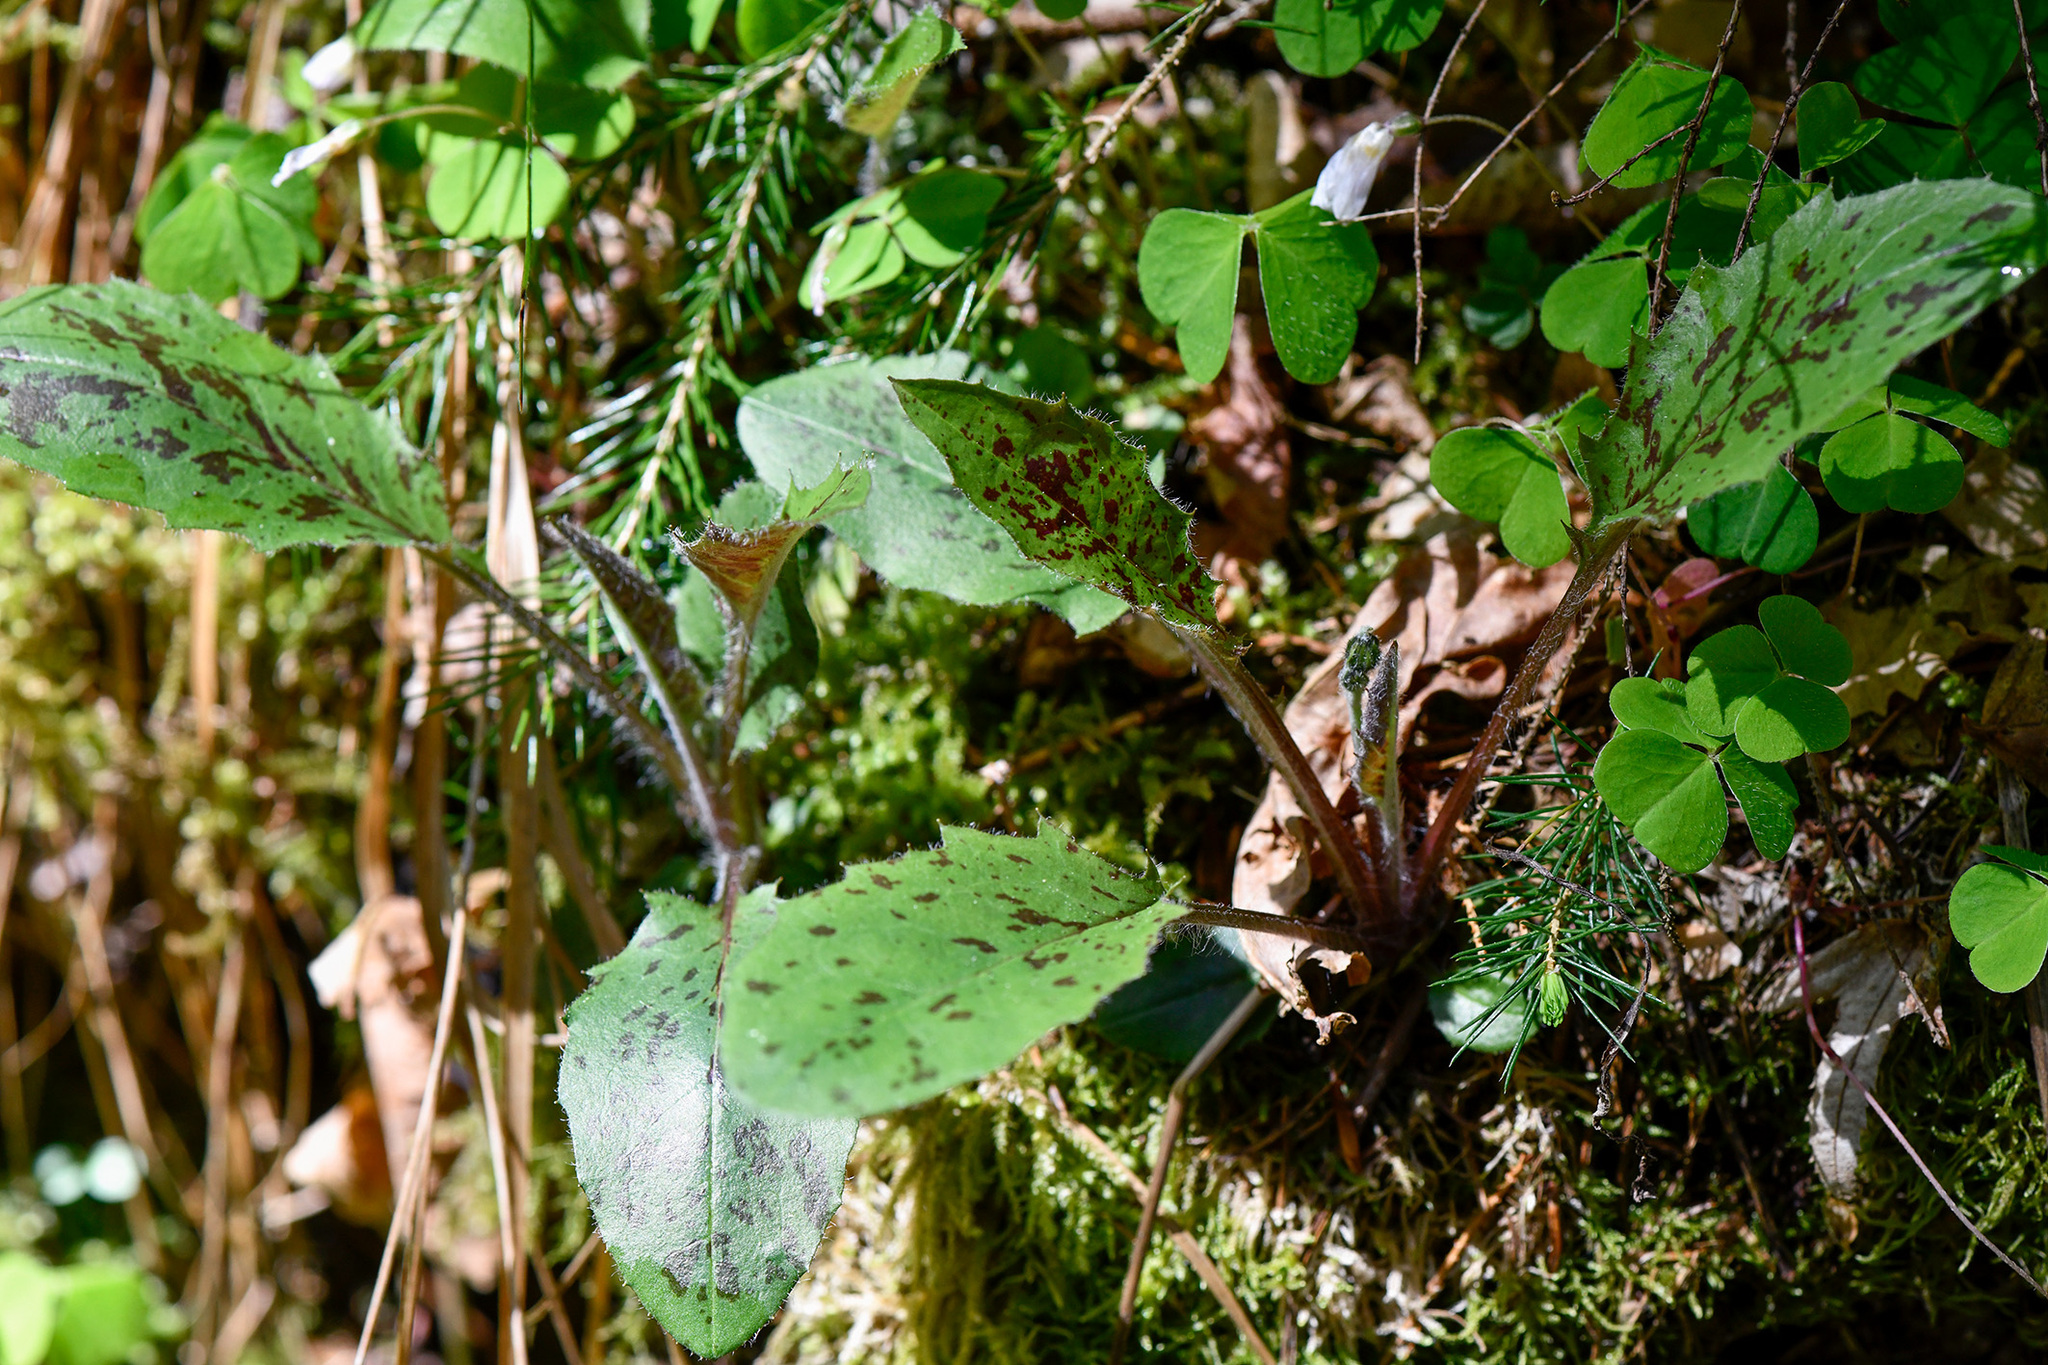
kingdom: Plantae
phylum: Tracheophyta
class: Magnoliopsida
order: Asterales
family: Asteraceae
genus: Hieracium
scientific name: Hieracium maculatum
